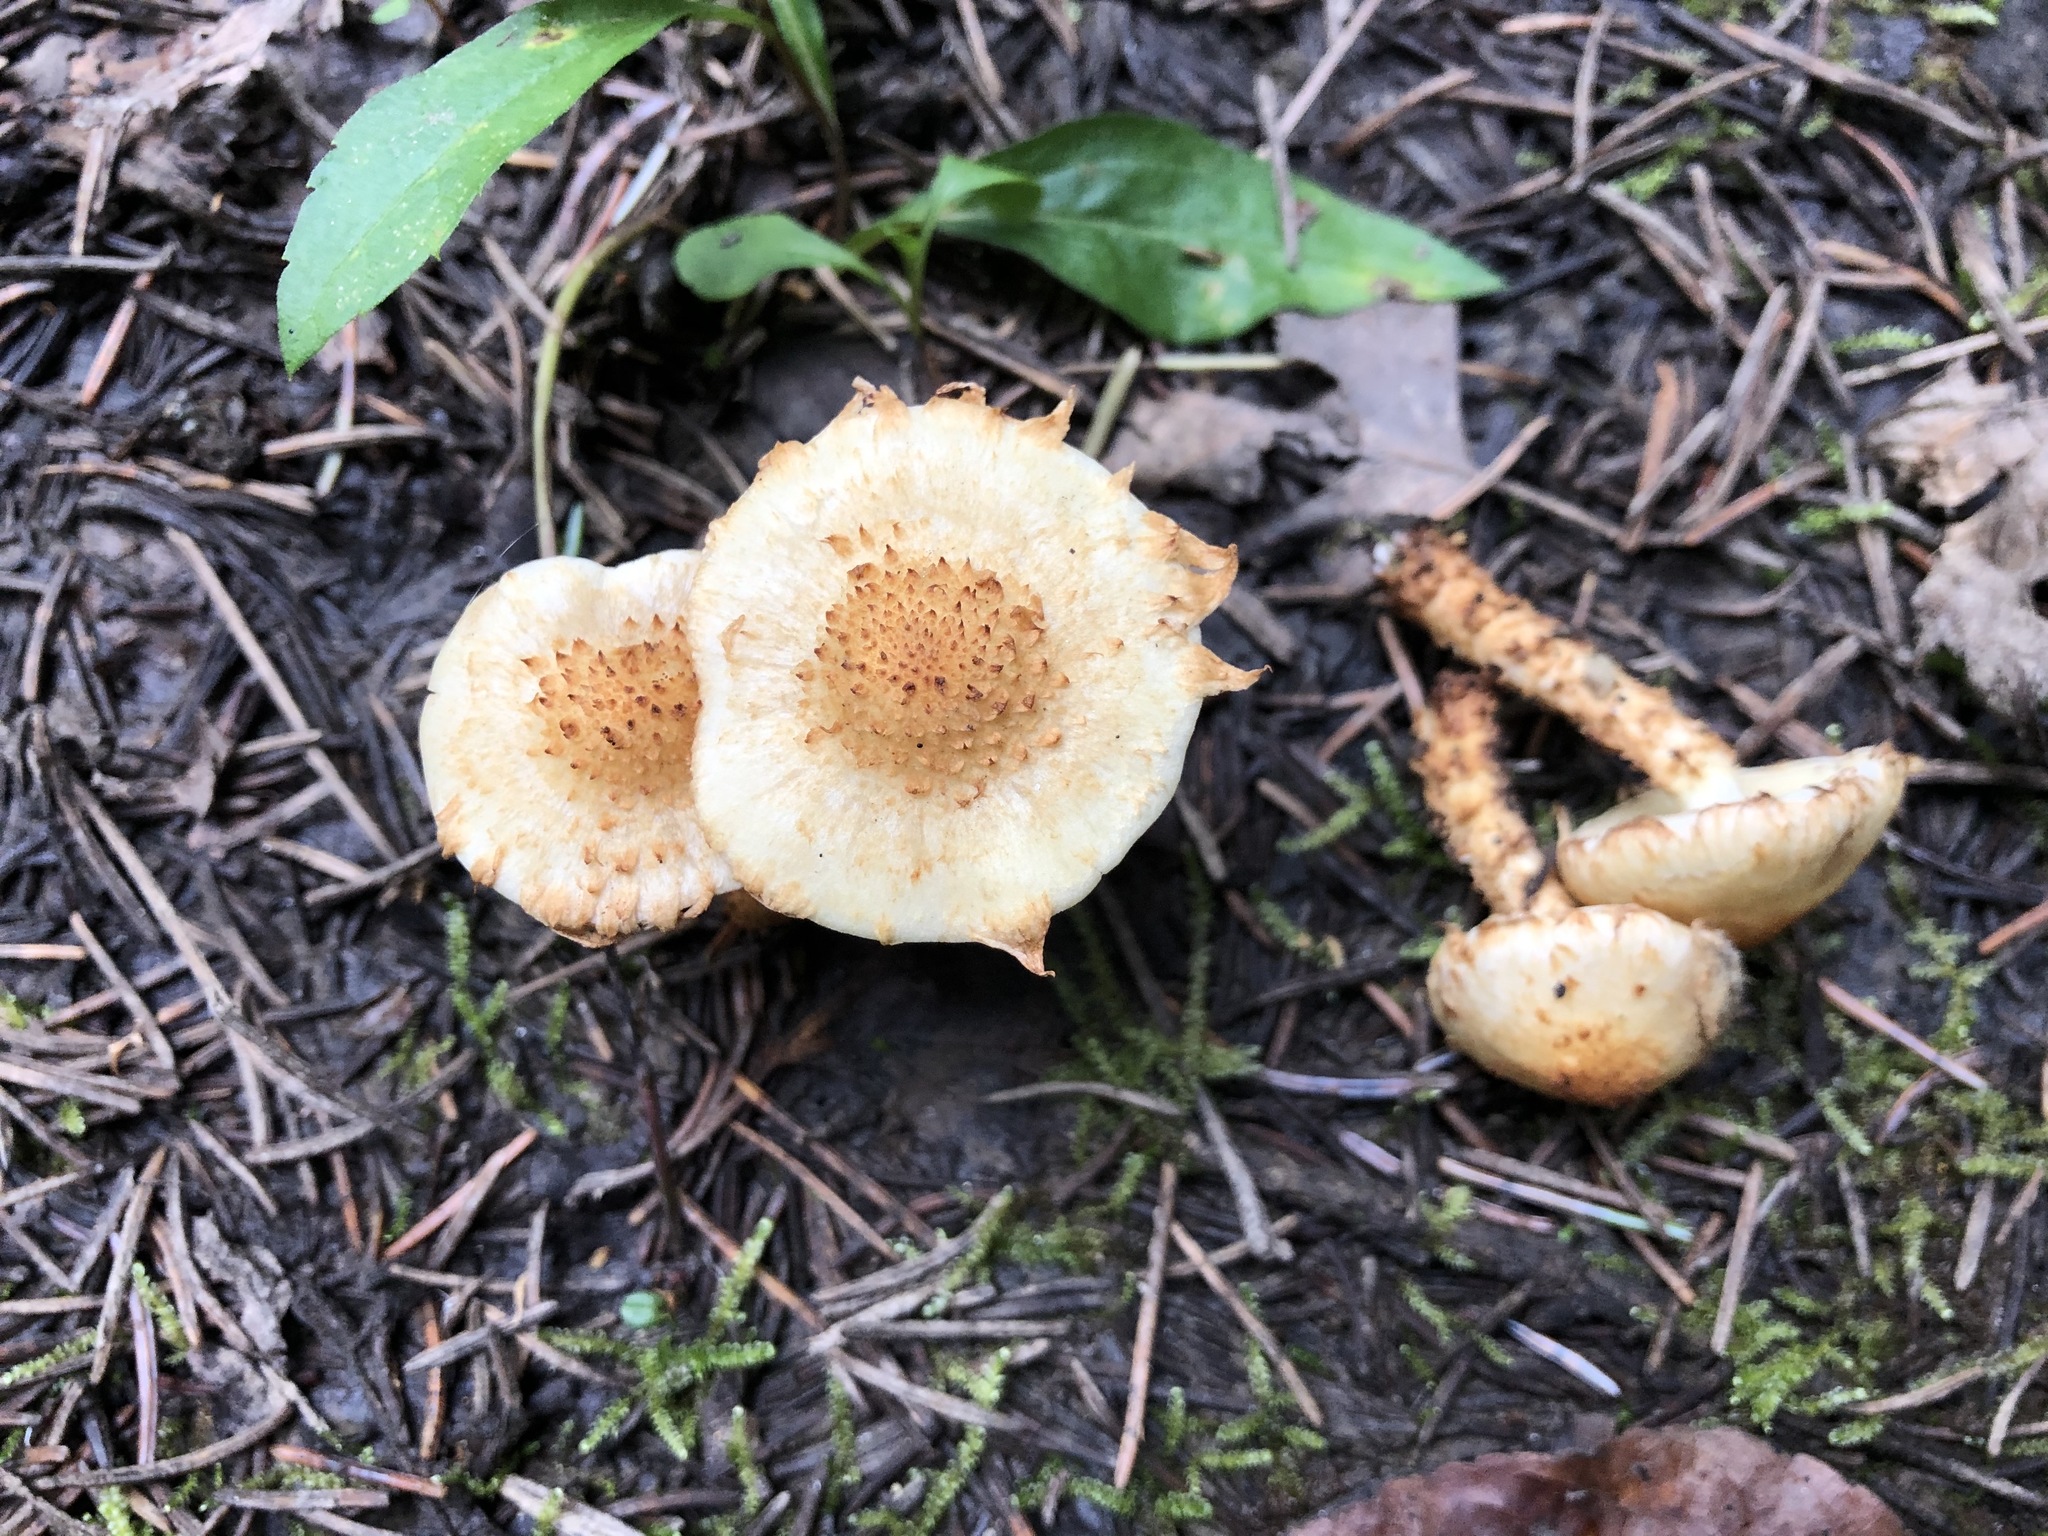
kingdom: Fungi
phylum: Basidiomycota
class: Agaricomycetes
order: Agaricales
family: Strophariaceae
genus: Pholiota
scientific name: Pholiota squarrosa
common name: Shaggy pholiota
